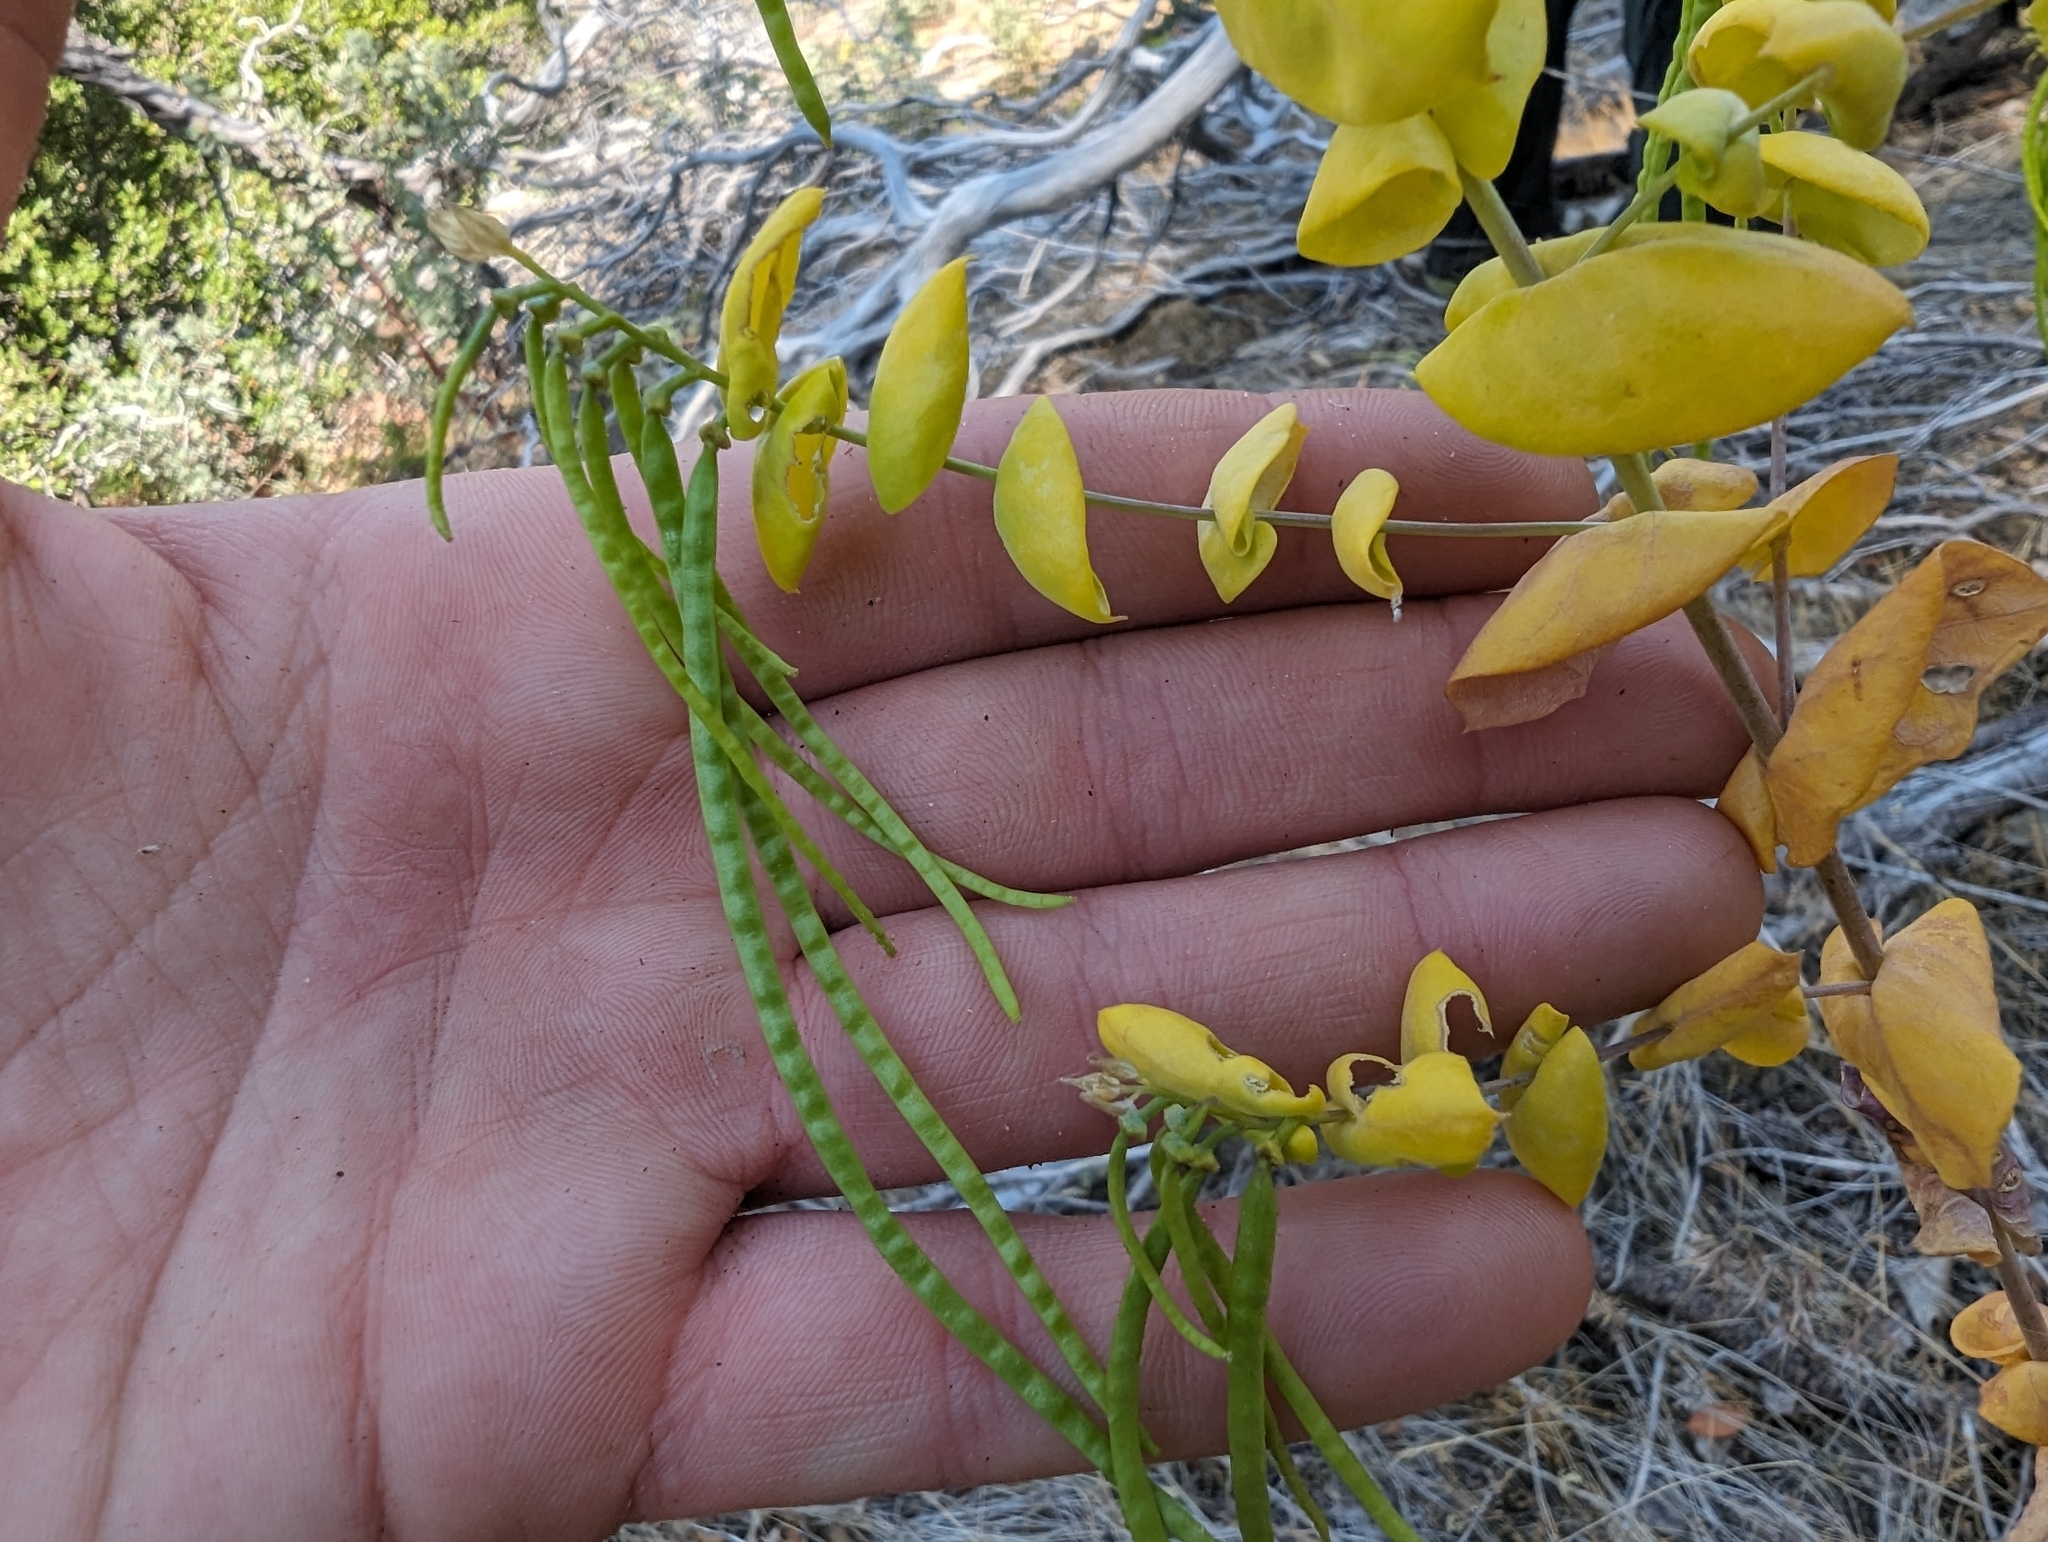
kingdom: Plantae
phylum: Tracheophyta
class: Magnoliopsida
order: Brassicales
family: Brassicaceae
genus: Streptanthus
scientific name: Streptanthus tortuosus
